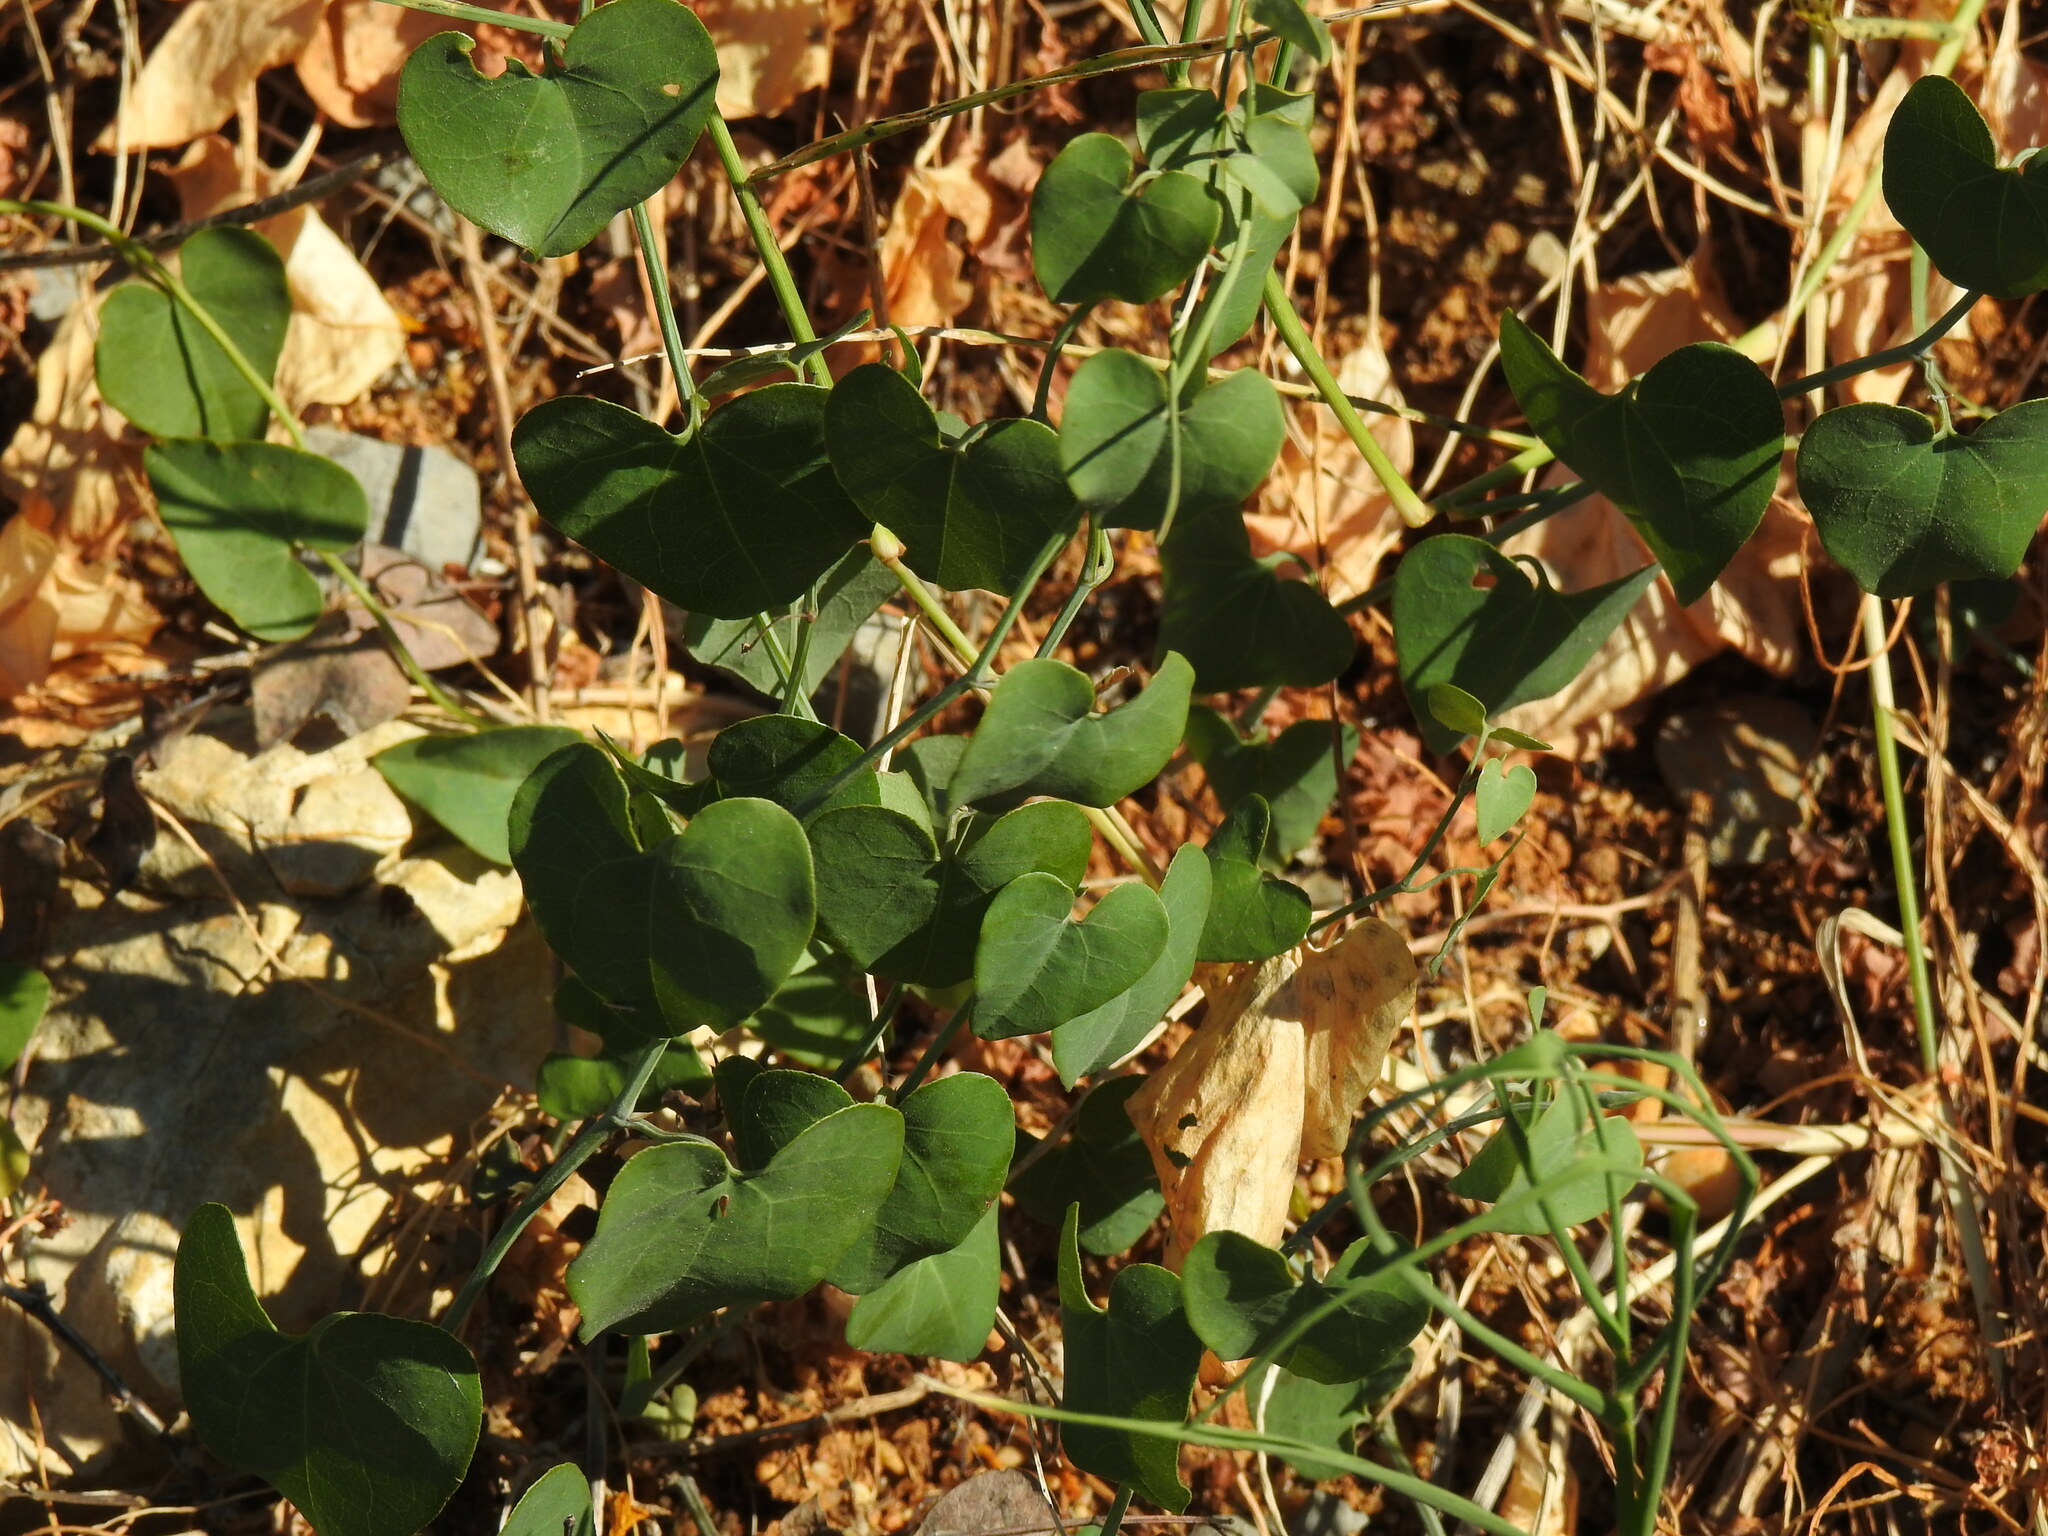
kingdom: Plantae
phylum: Tracheophyta
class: Magnoliopsida
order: Piperales
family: Aristolochiaceae
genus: Aristolochia
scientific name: Aristolochia baetica
